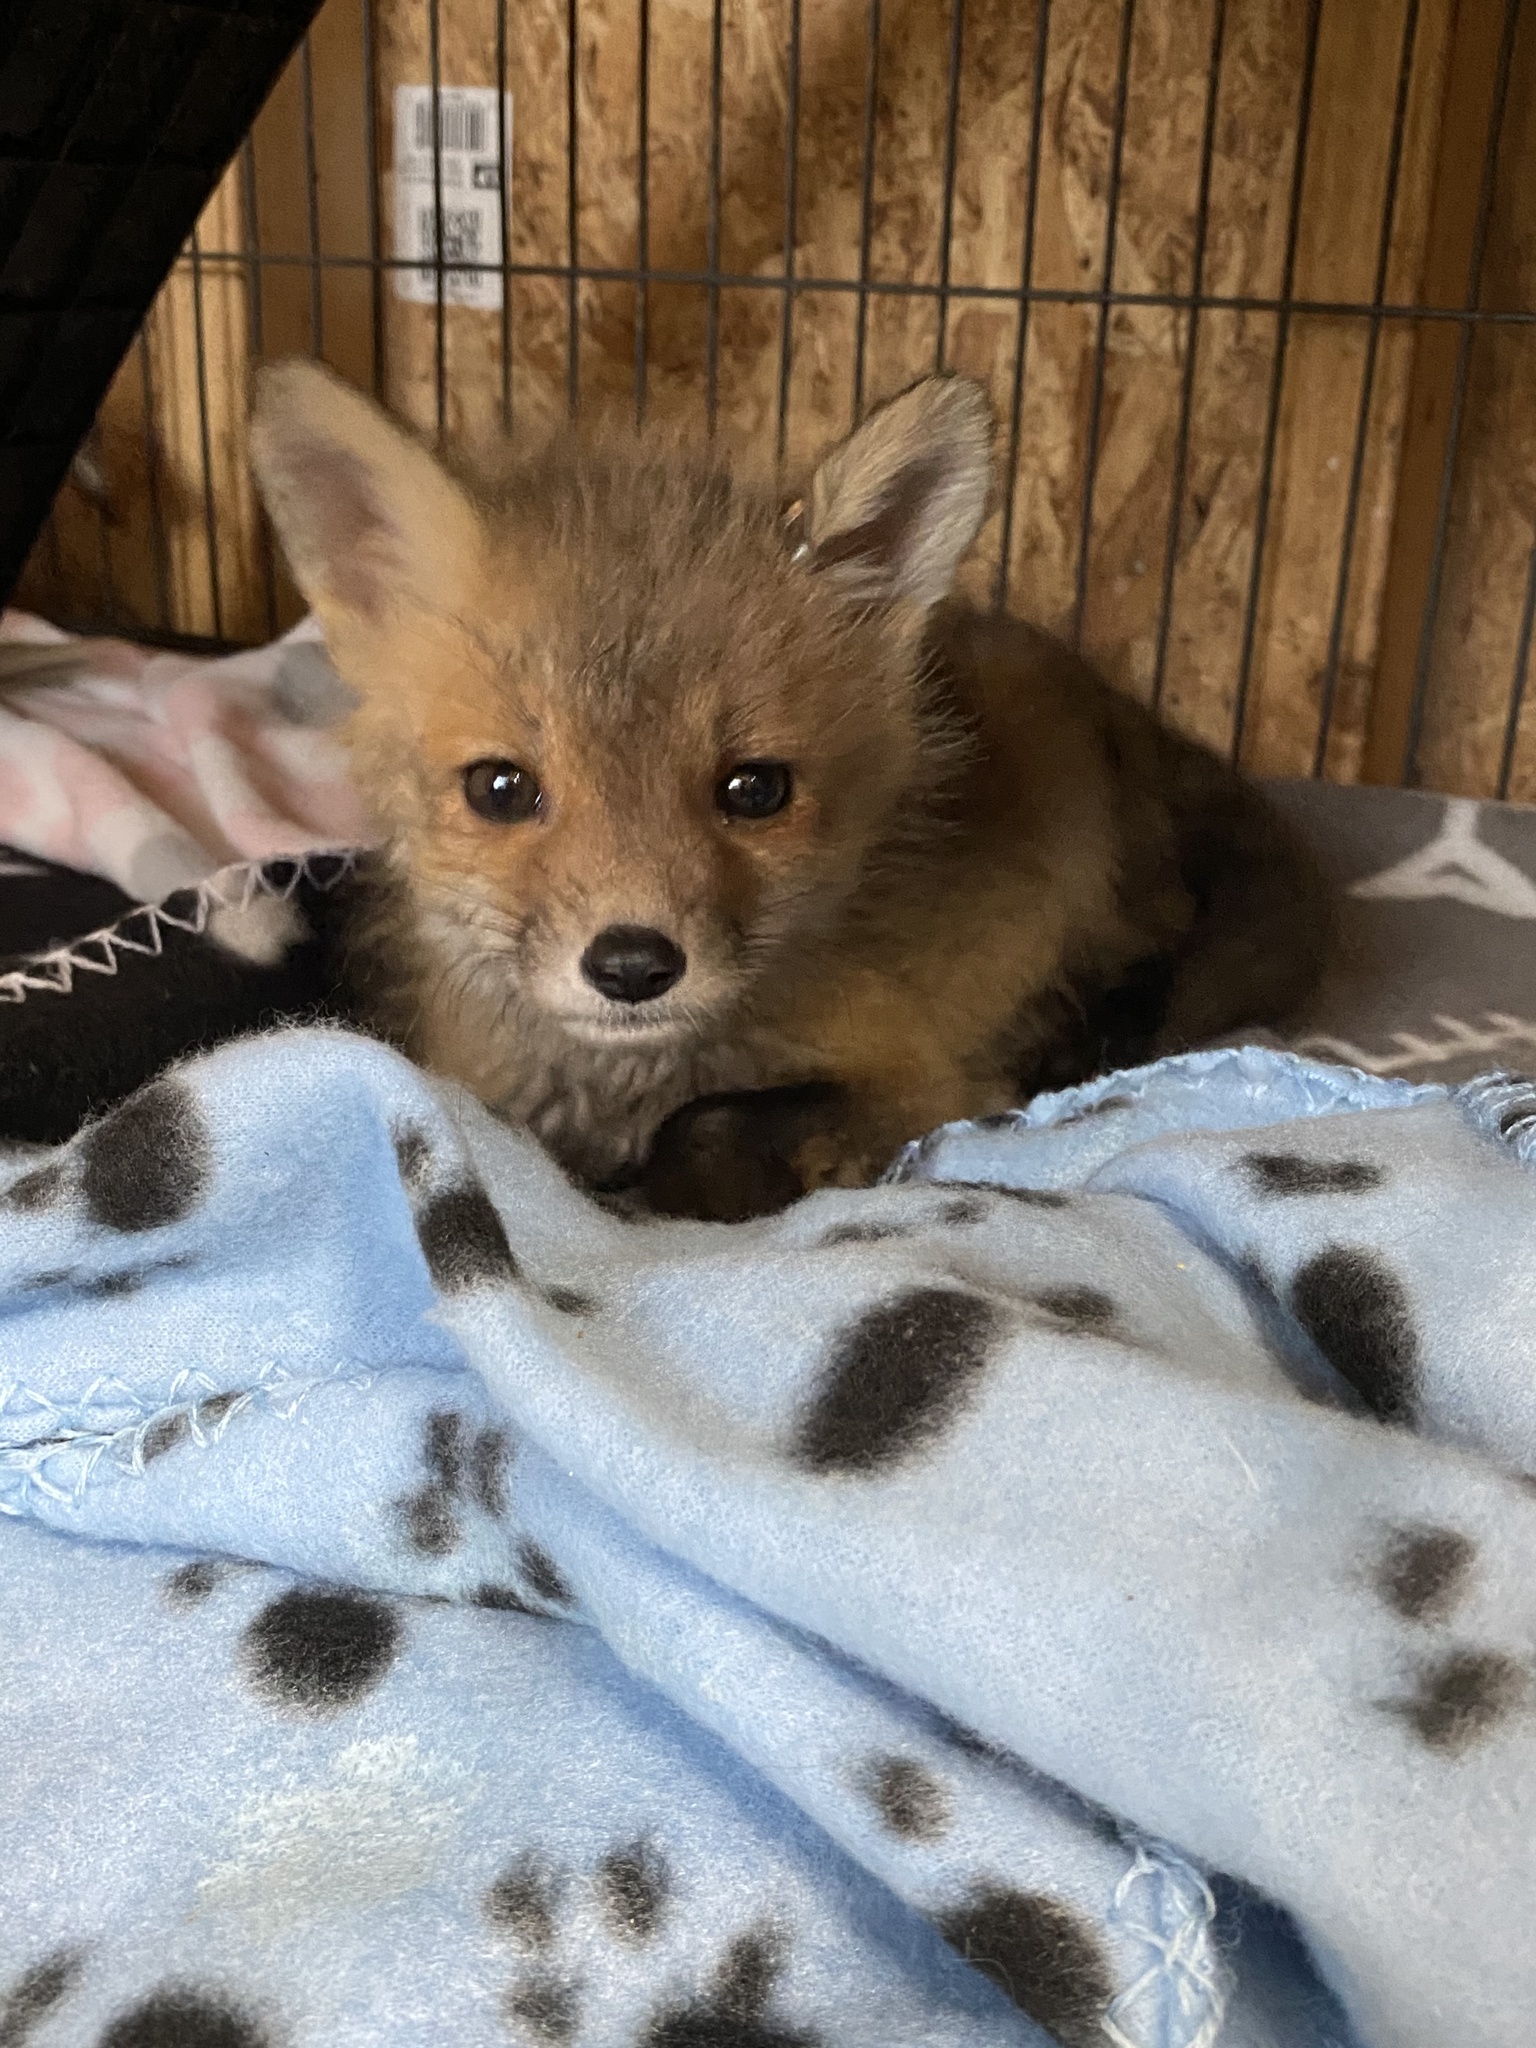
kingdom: Animalia
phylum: Chordata
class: Mammalia
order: Carnivora
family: Canidae
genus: Vulpes
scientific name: Vulpes vulpes
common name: Red fox
